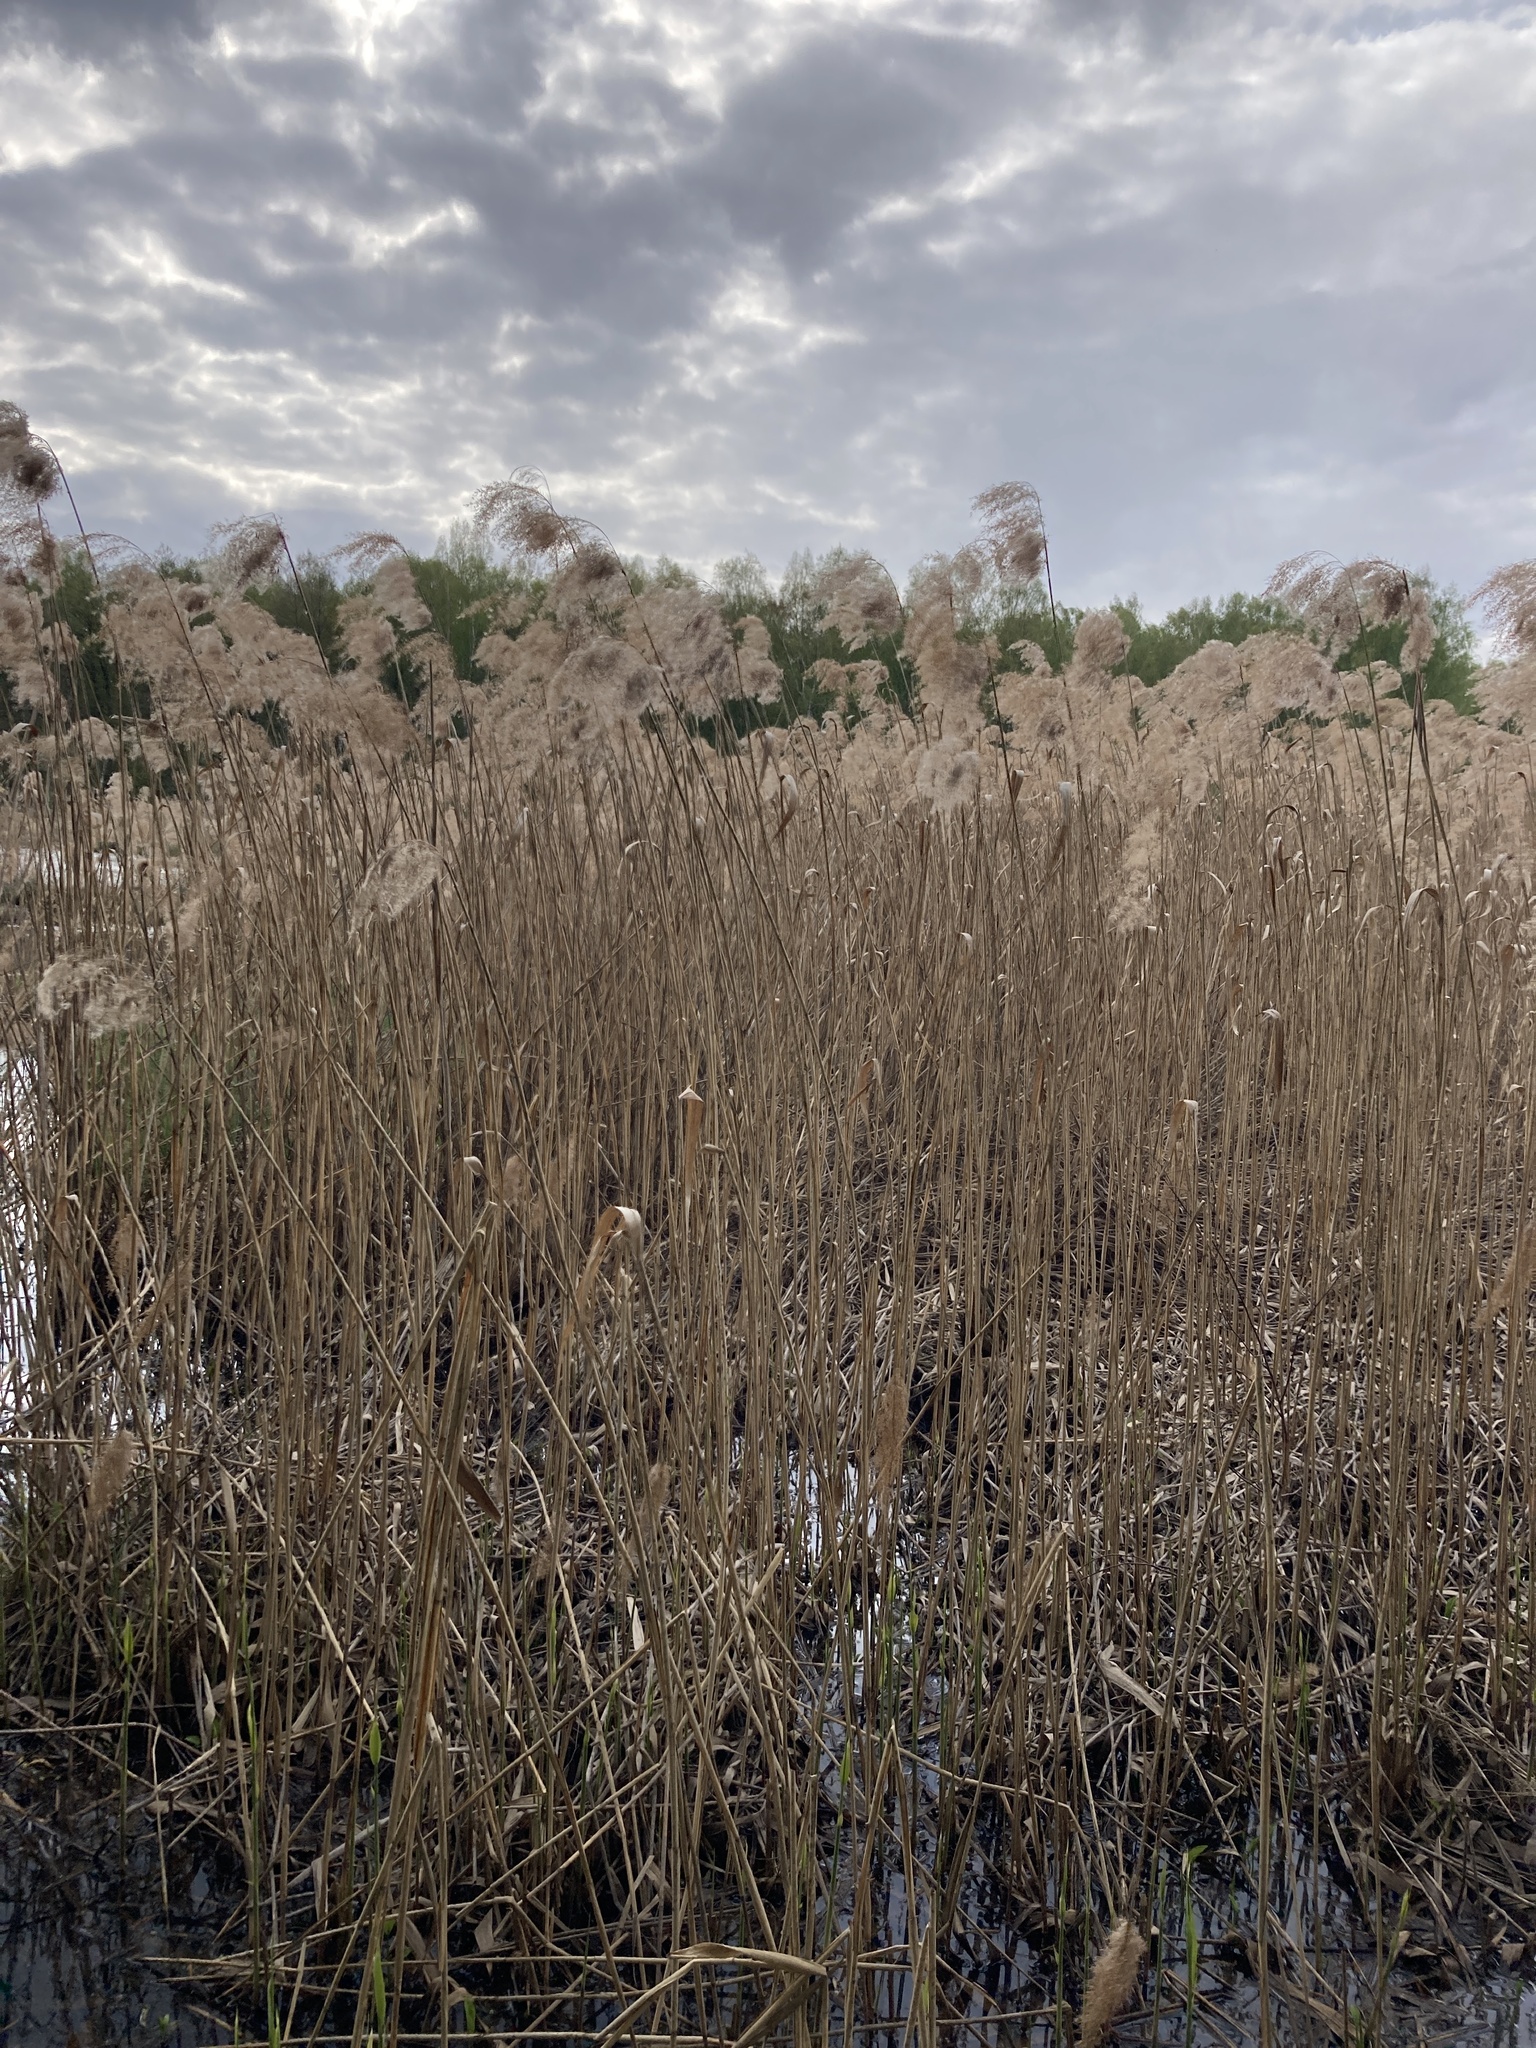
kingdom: Plantae
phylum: Tracheophyta
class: Liliopsida
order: Poales
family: Poaceae
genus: Phragmites
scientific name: Phragmites australis
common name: Common reed
